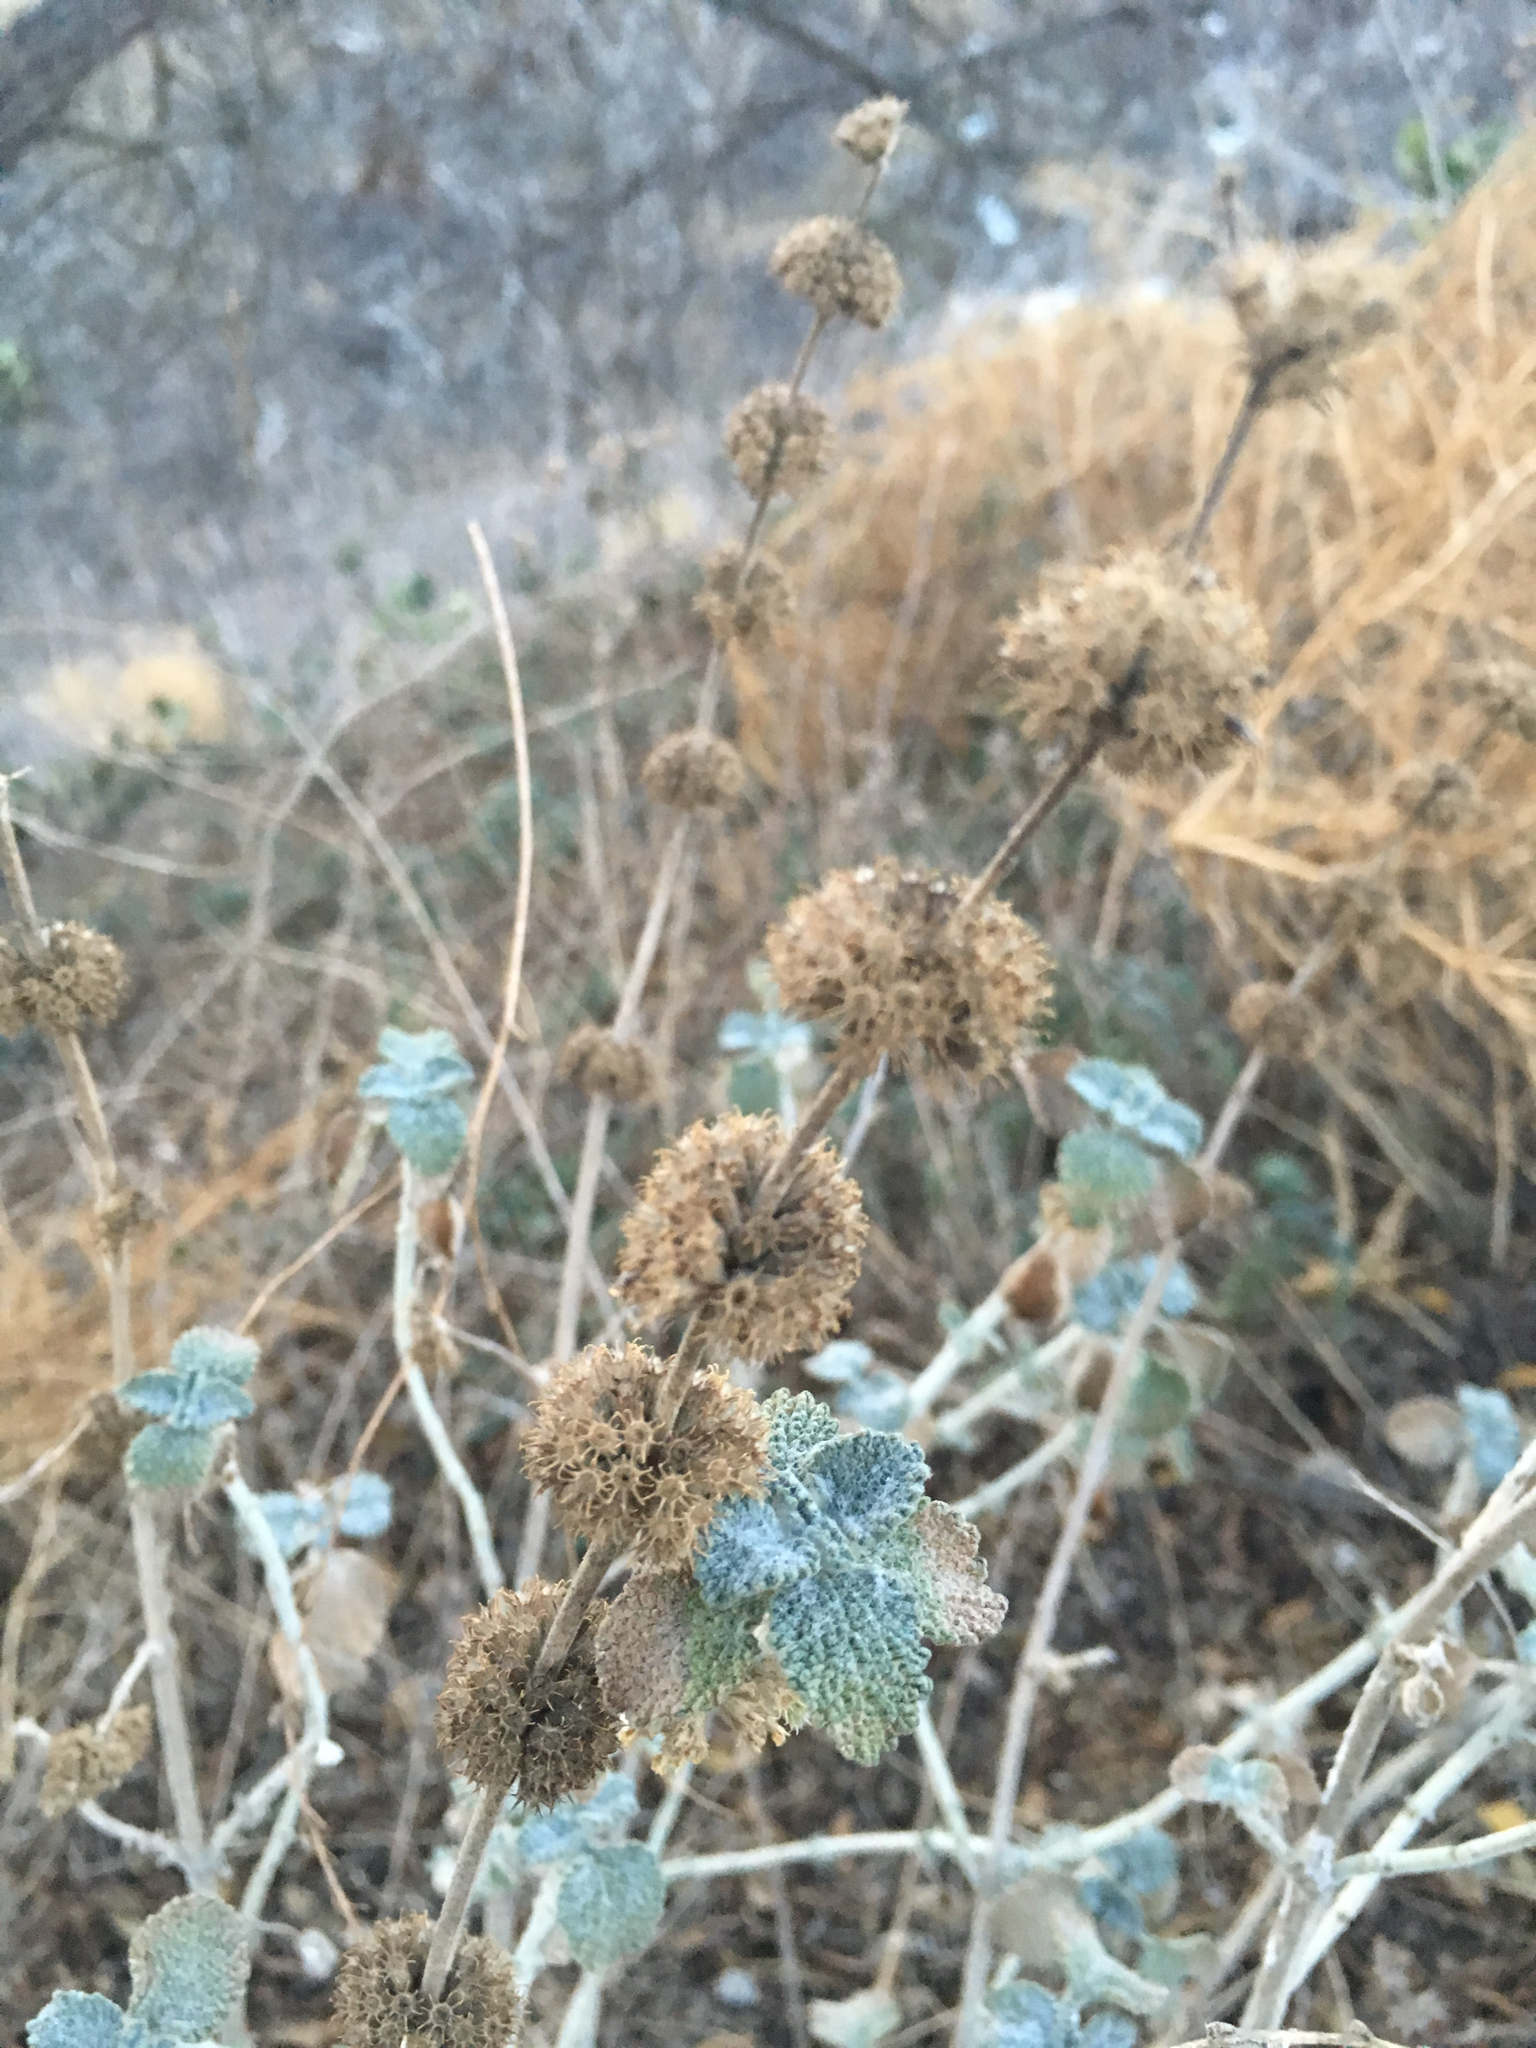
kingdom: Plantae
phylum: Tracheophyta
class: Magnoliopsida
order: Lamiales
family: Lamiaceae
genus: Marrubium
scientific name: Marrubium vulgare
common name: Horehound
